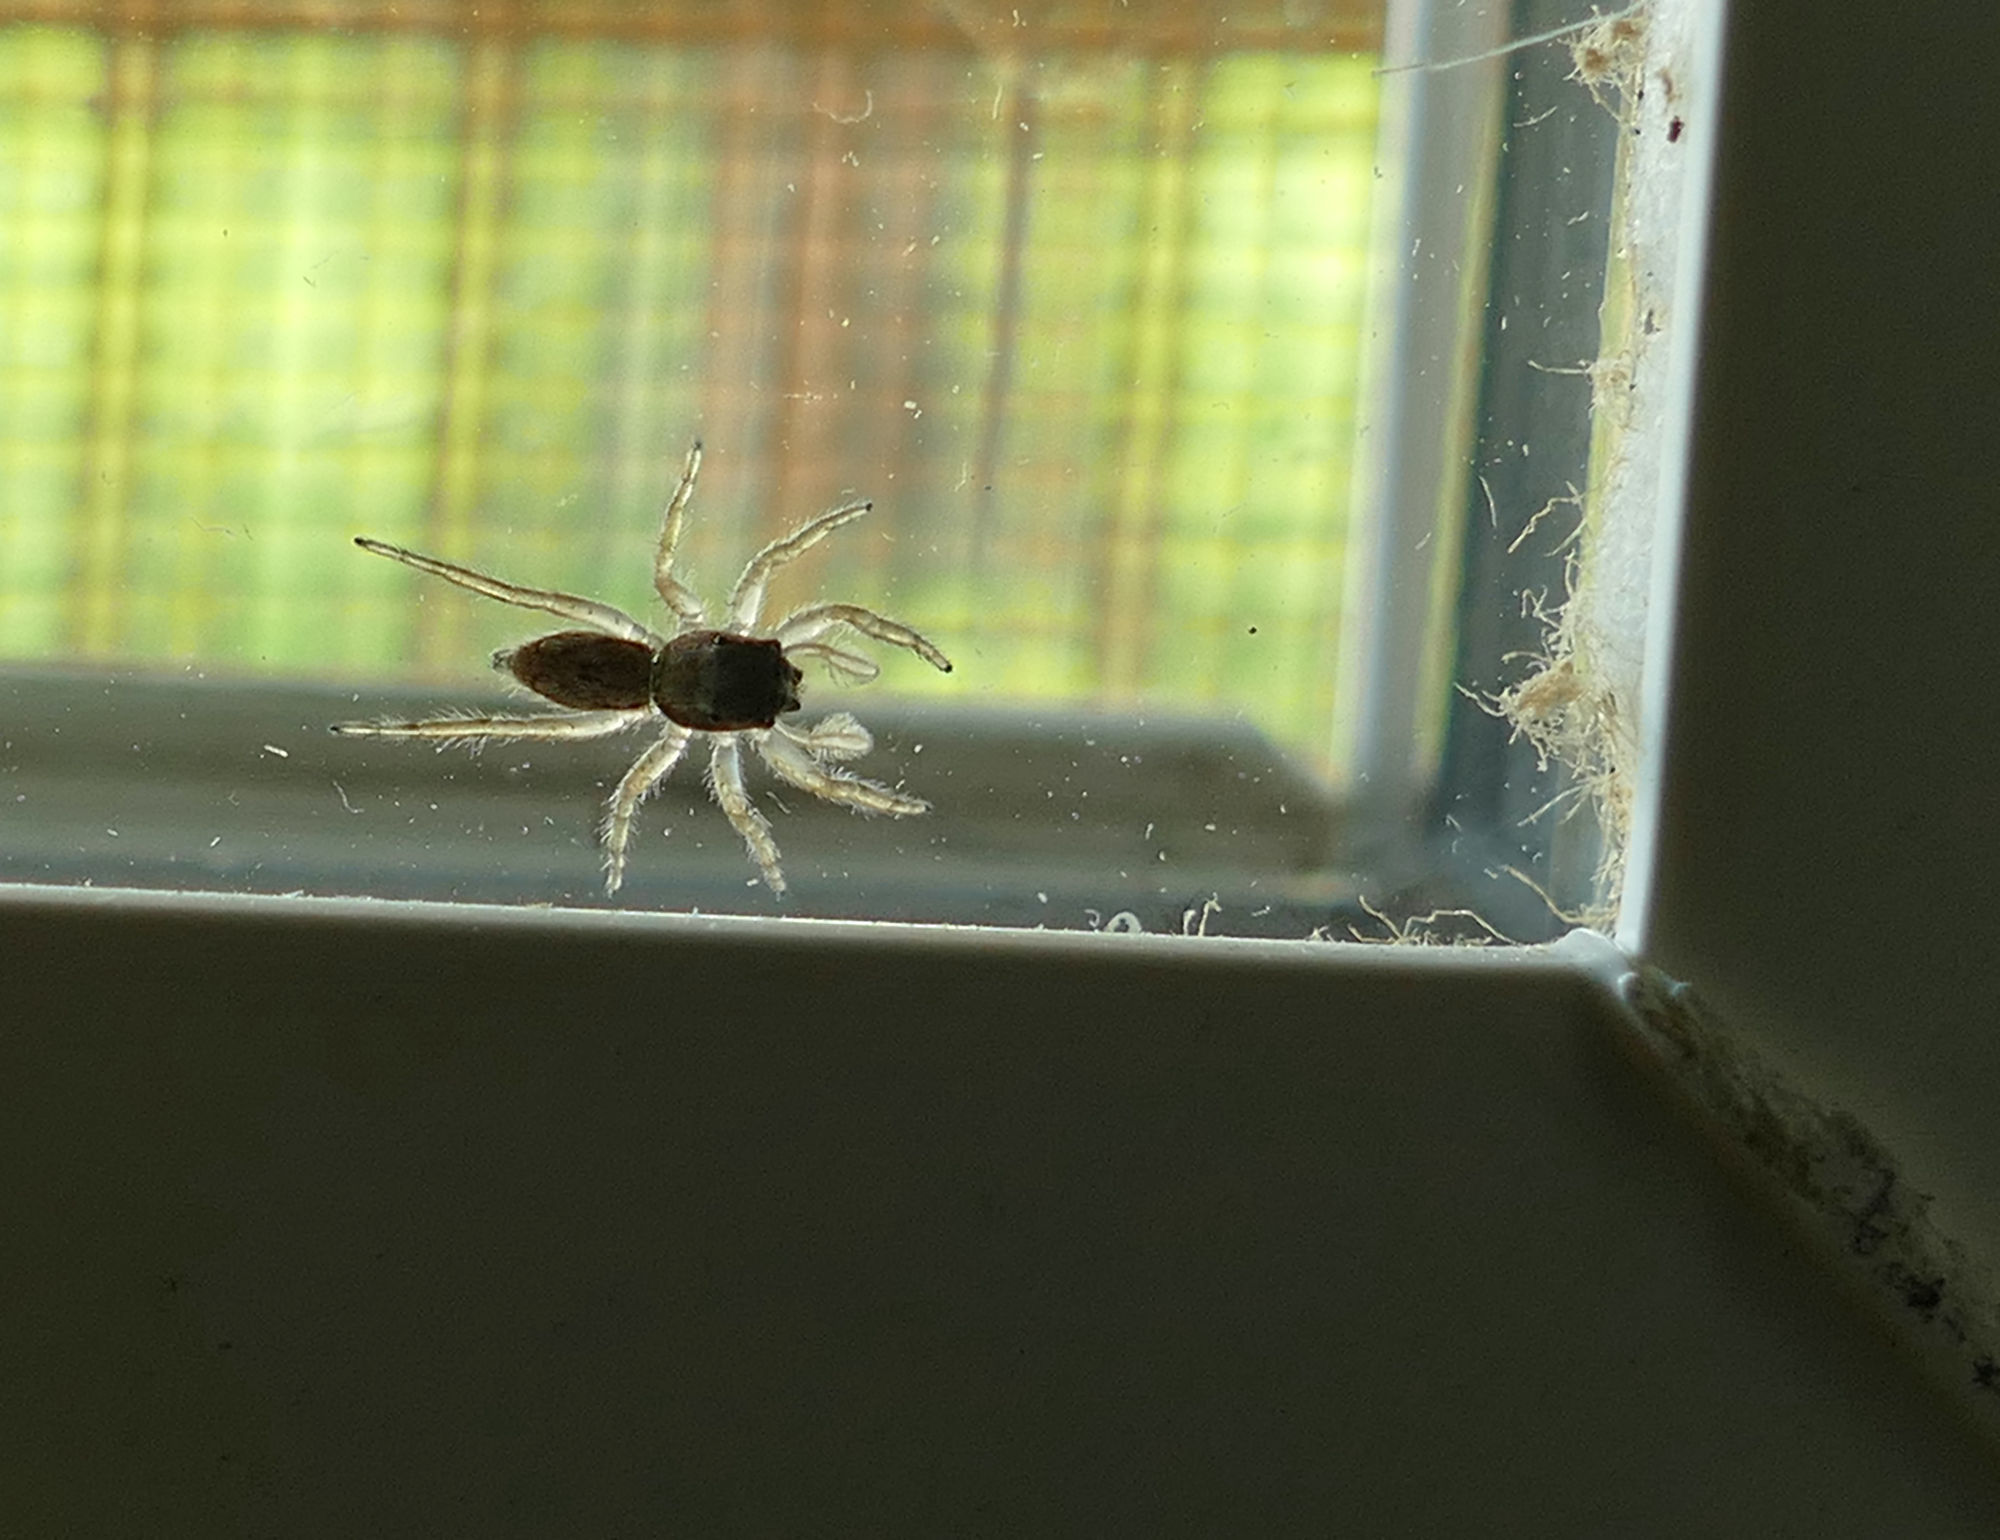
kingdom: Animalia
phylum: Arthropoda
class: Arachnida
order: Araneae
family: Salticidae
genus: Menemerus
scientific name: Menemerus bivittatus
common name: Gray wall jumper
